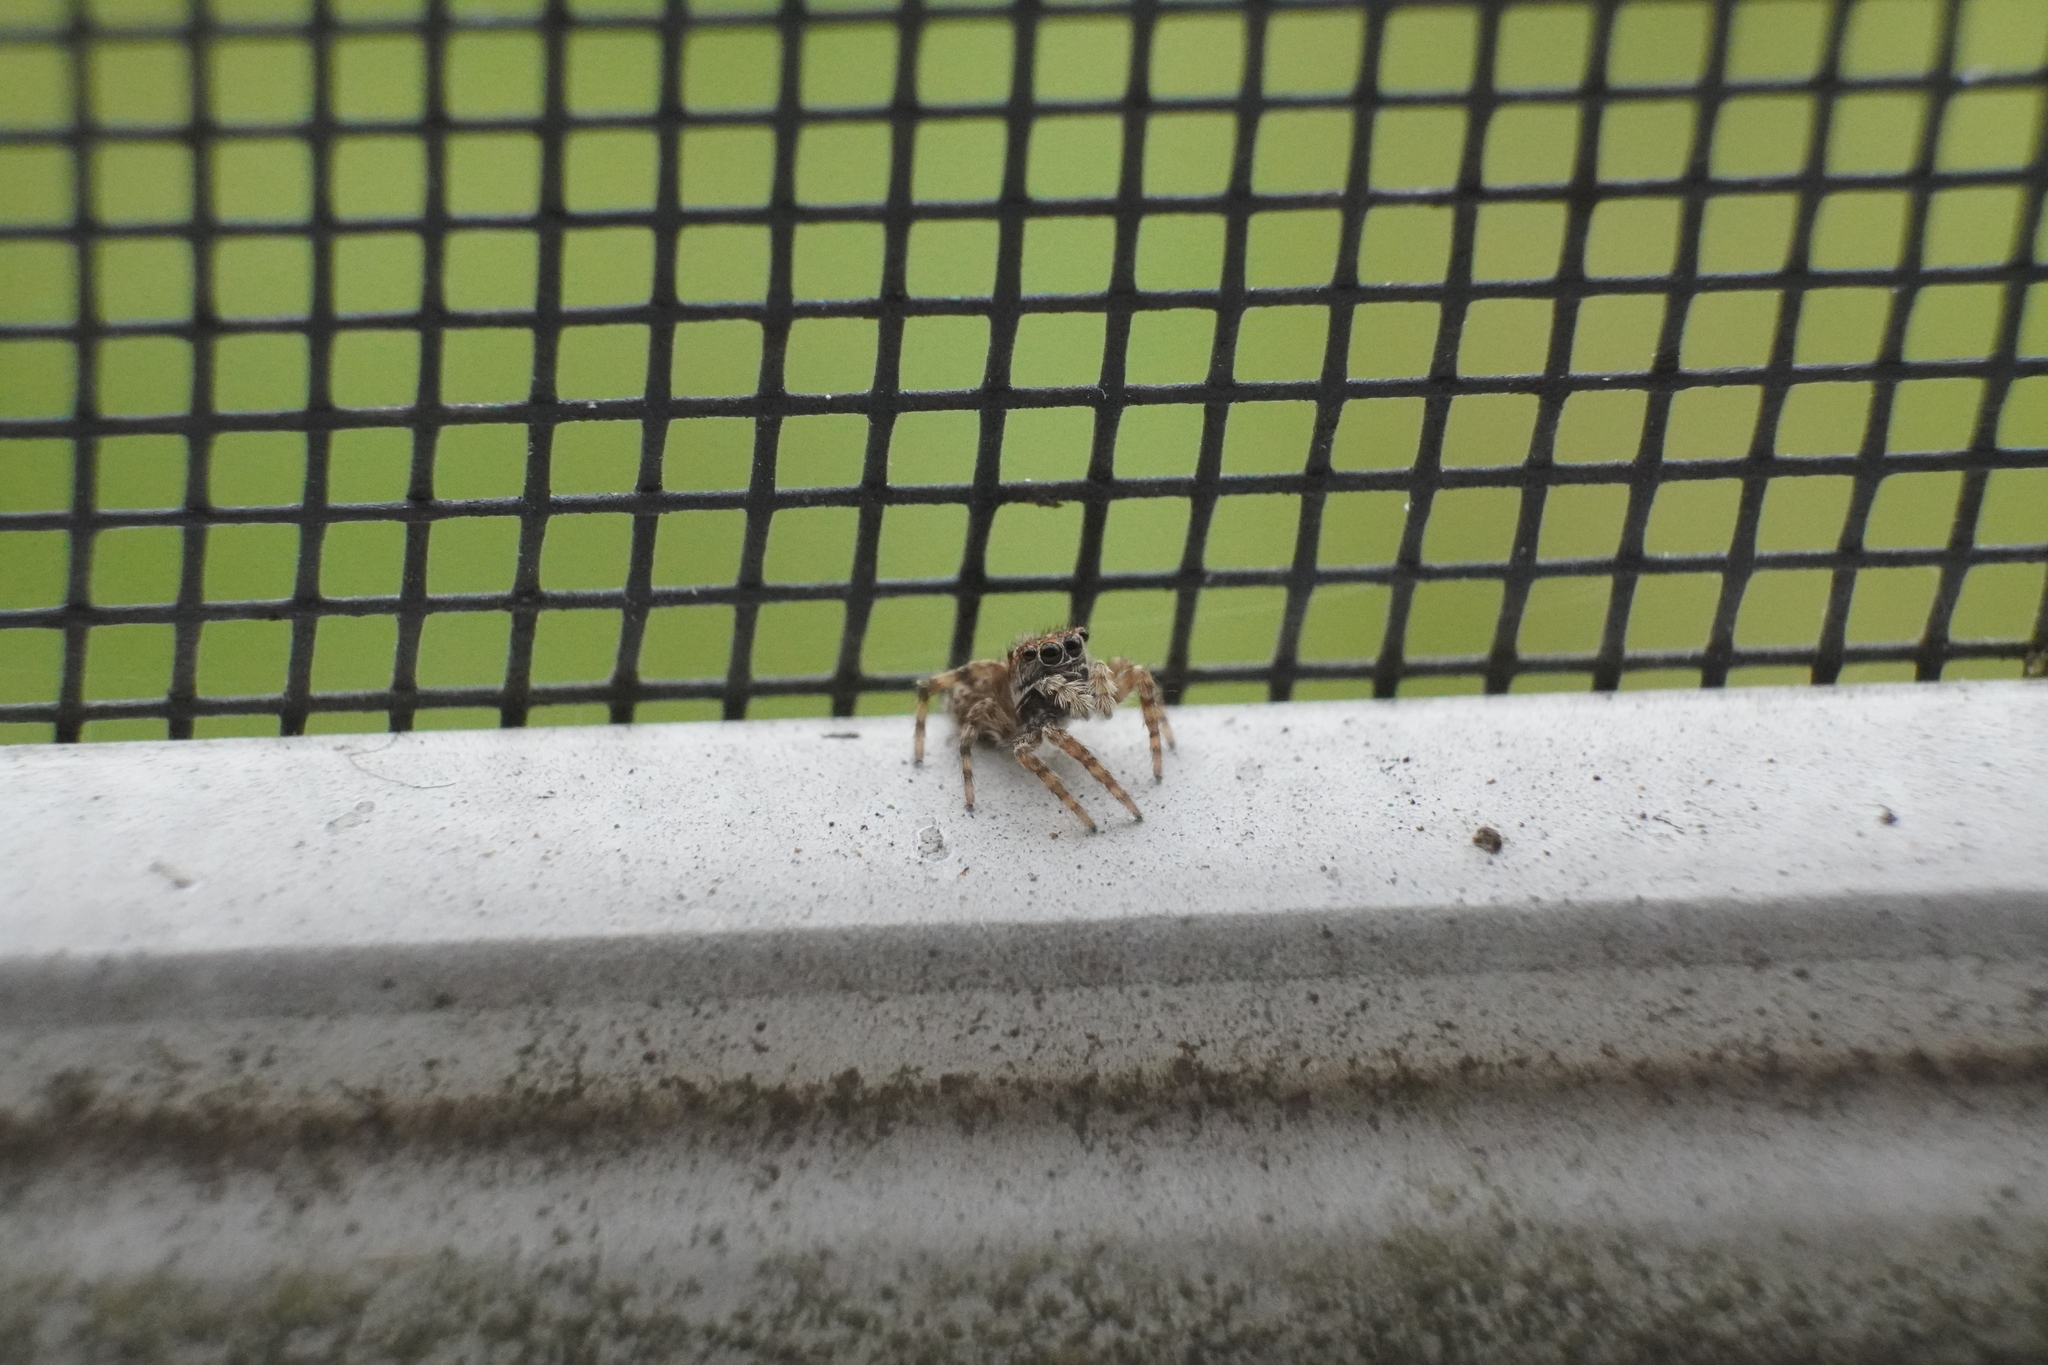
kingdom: Animalia
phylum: Arthropoda
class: Arachnida
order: Araneae
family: Salticidae
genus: Attulus
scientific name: Attulus fasciger
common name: Asiatic wall jumping spider
